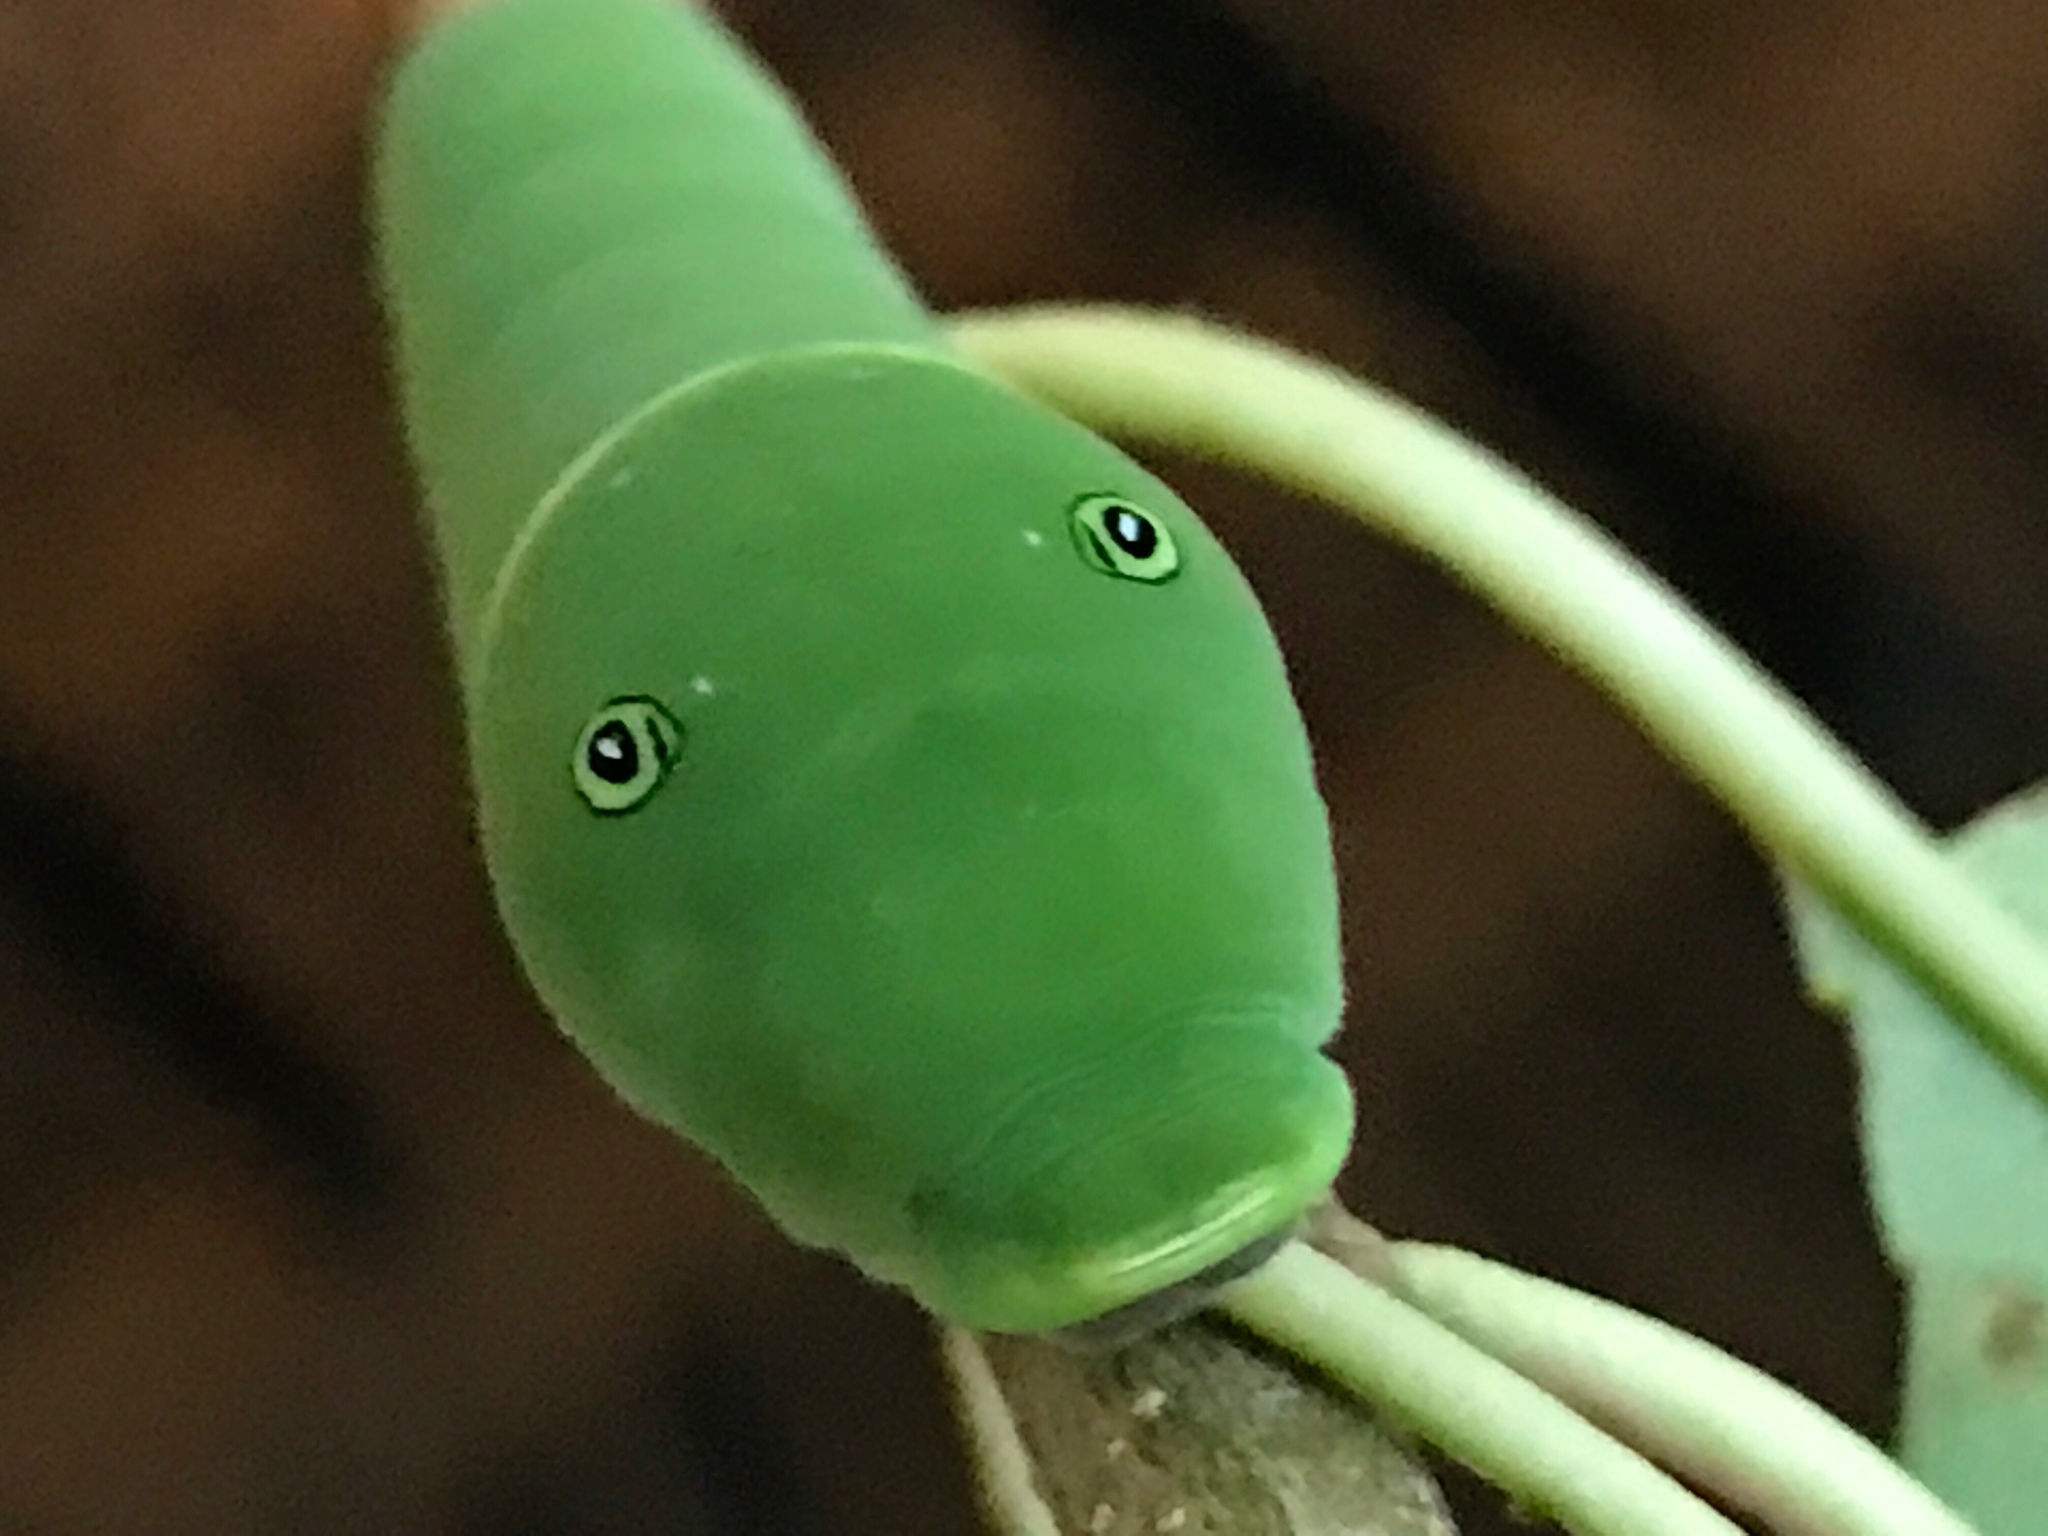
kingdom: Animalia
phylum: Arthropoda
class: Insecta
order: Lepidoptera
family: Papilionidae
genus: Papilio
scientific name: Papilio glaucus
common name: Tiger swallowtail
